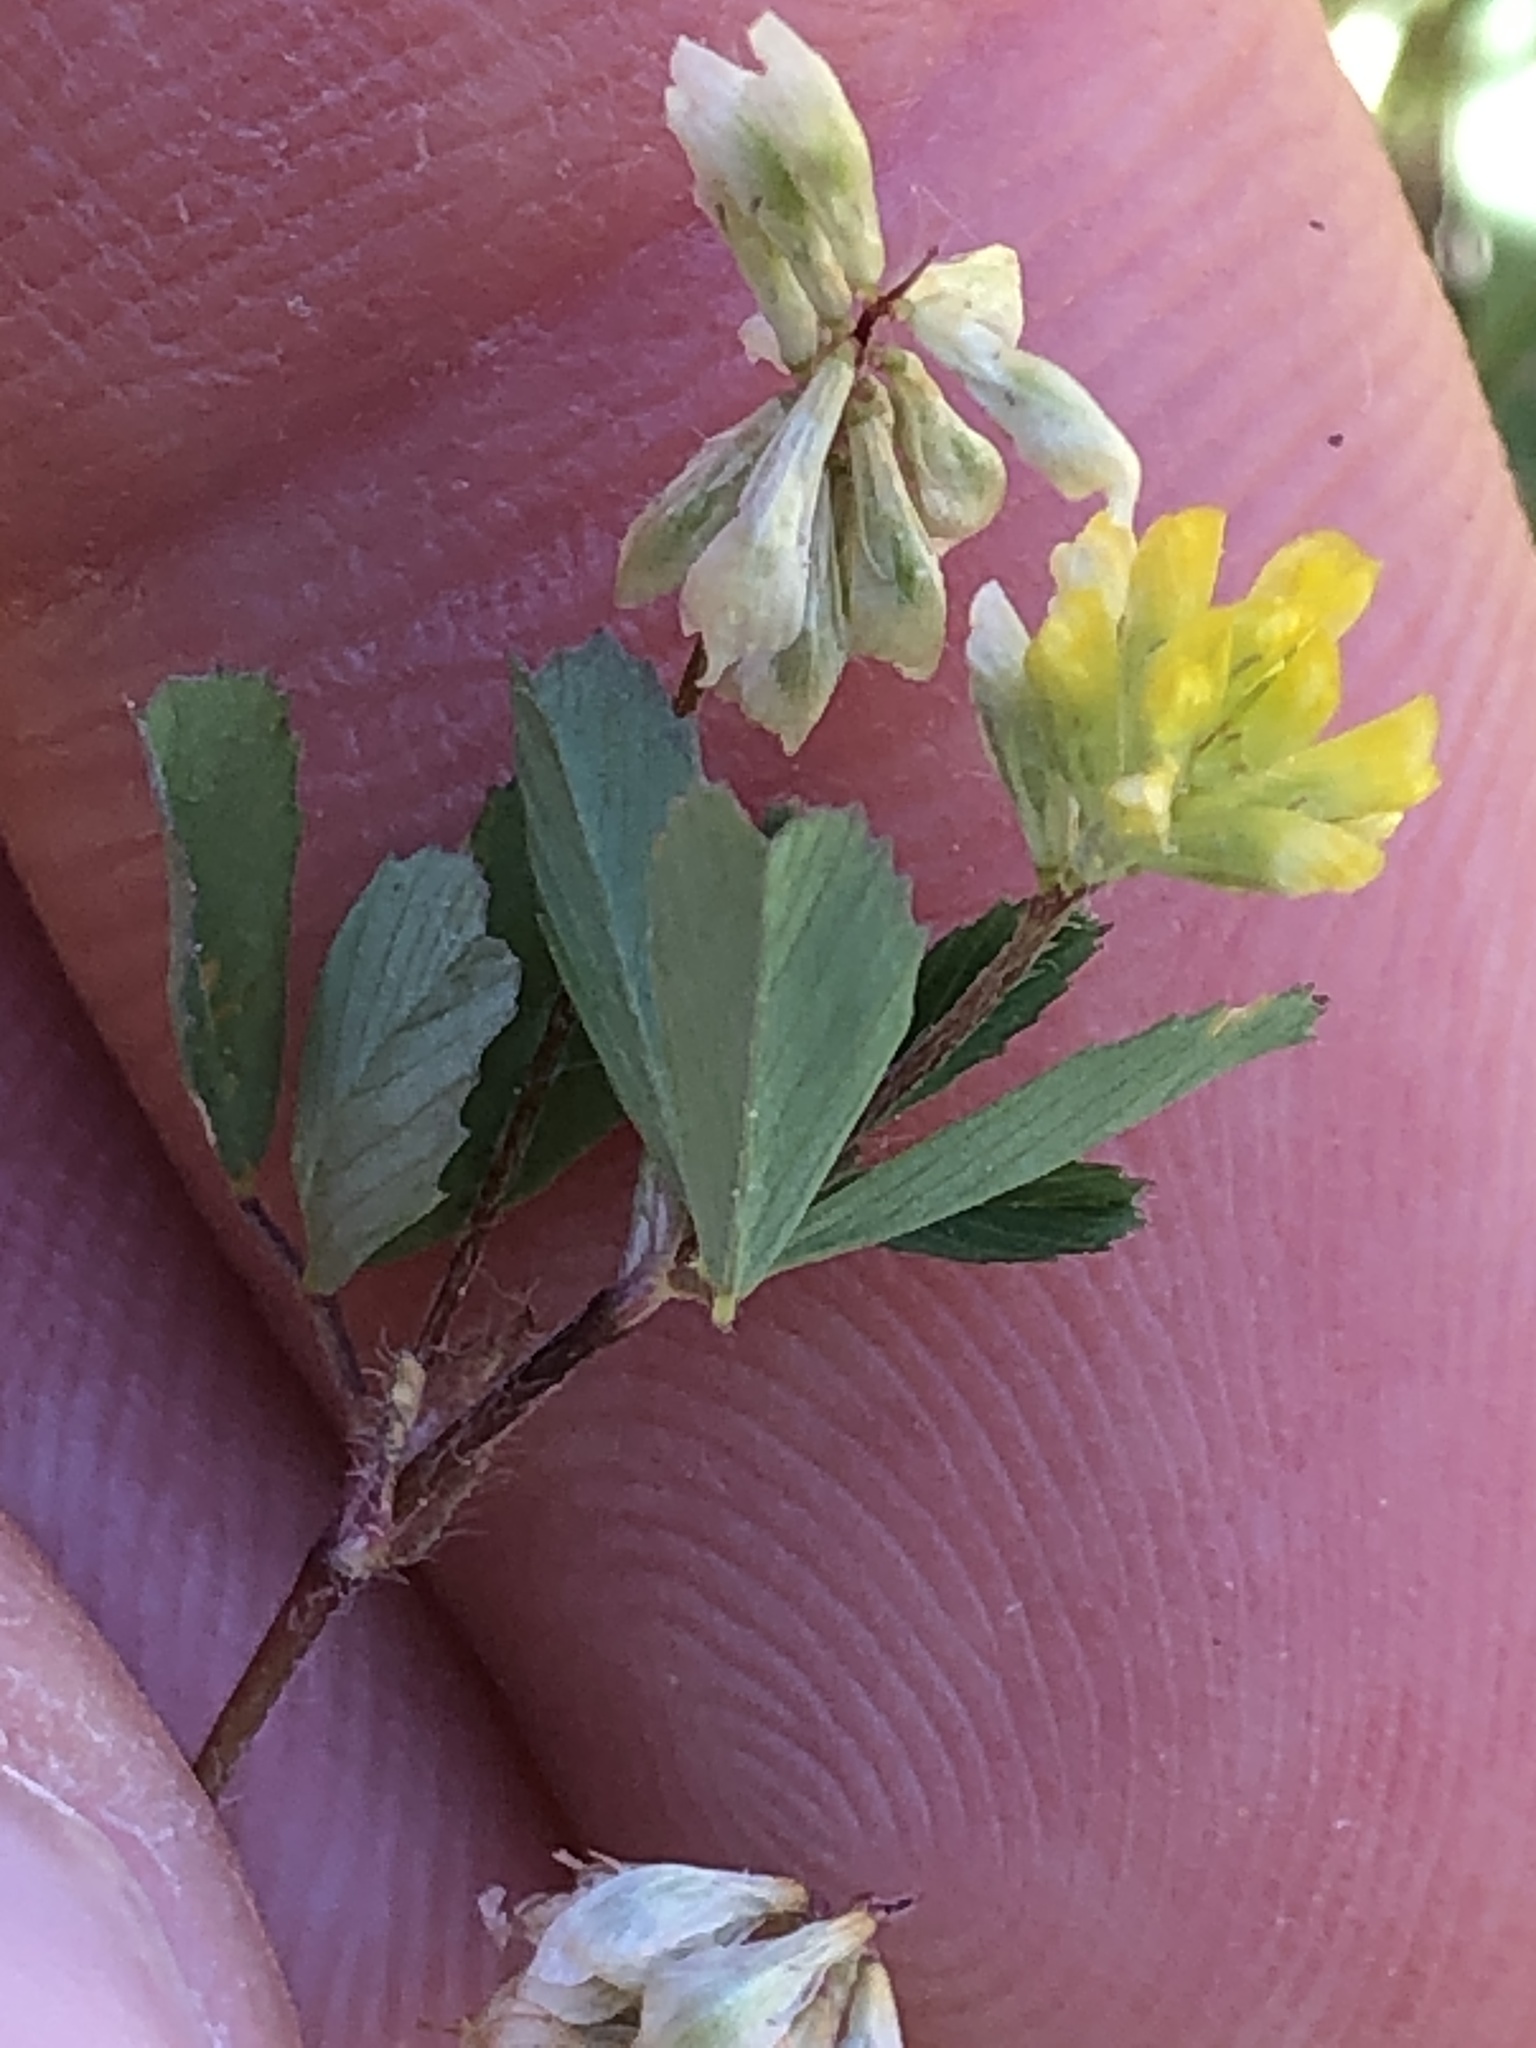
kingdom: Plantae
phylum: Tracheophyta
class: Magnoliopsida
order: Fabales
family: Fabaceae
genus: Trifolium
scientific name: Trifolium dubium
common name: Suckling clover
